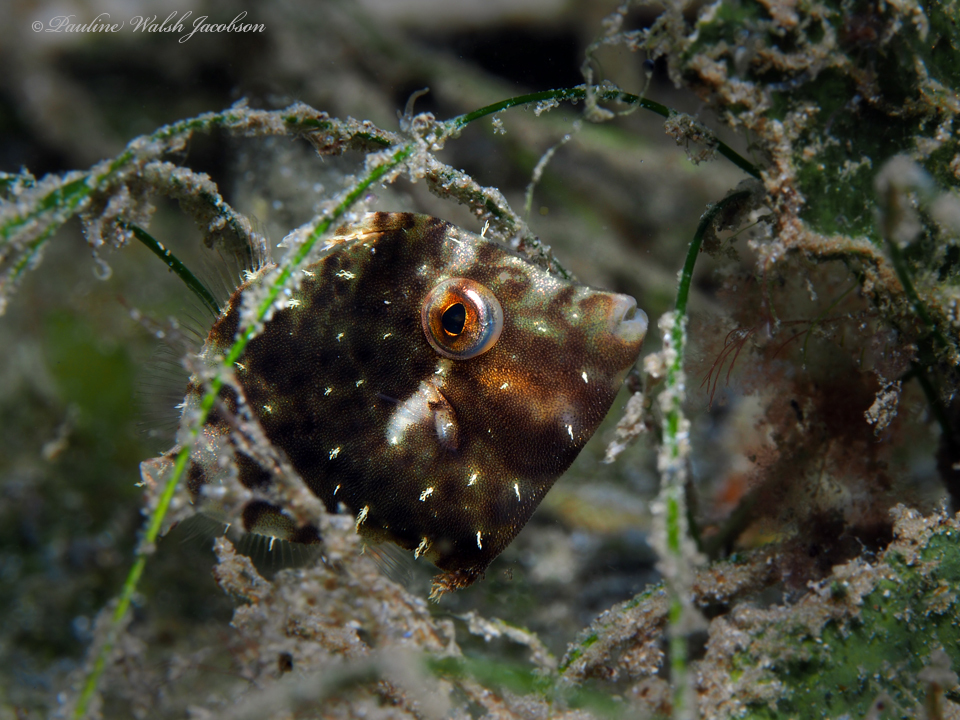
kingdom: Animalia
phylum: Chordata
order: Tetraodontiformes
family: Monacanthidae
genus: Stephanolepis
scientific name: Stephanolepis hispidus
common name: Planehead filefish
